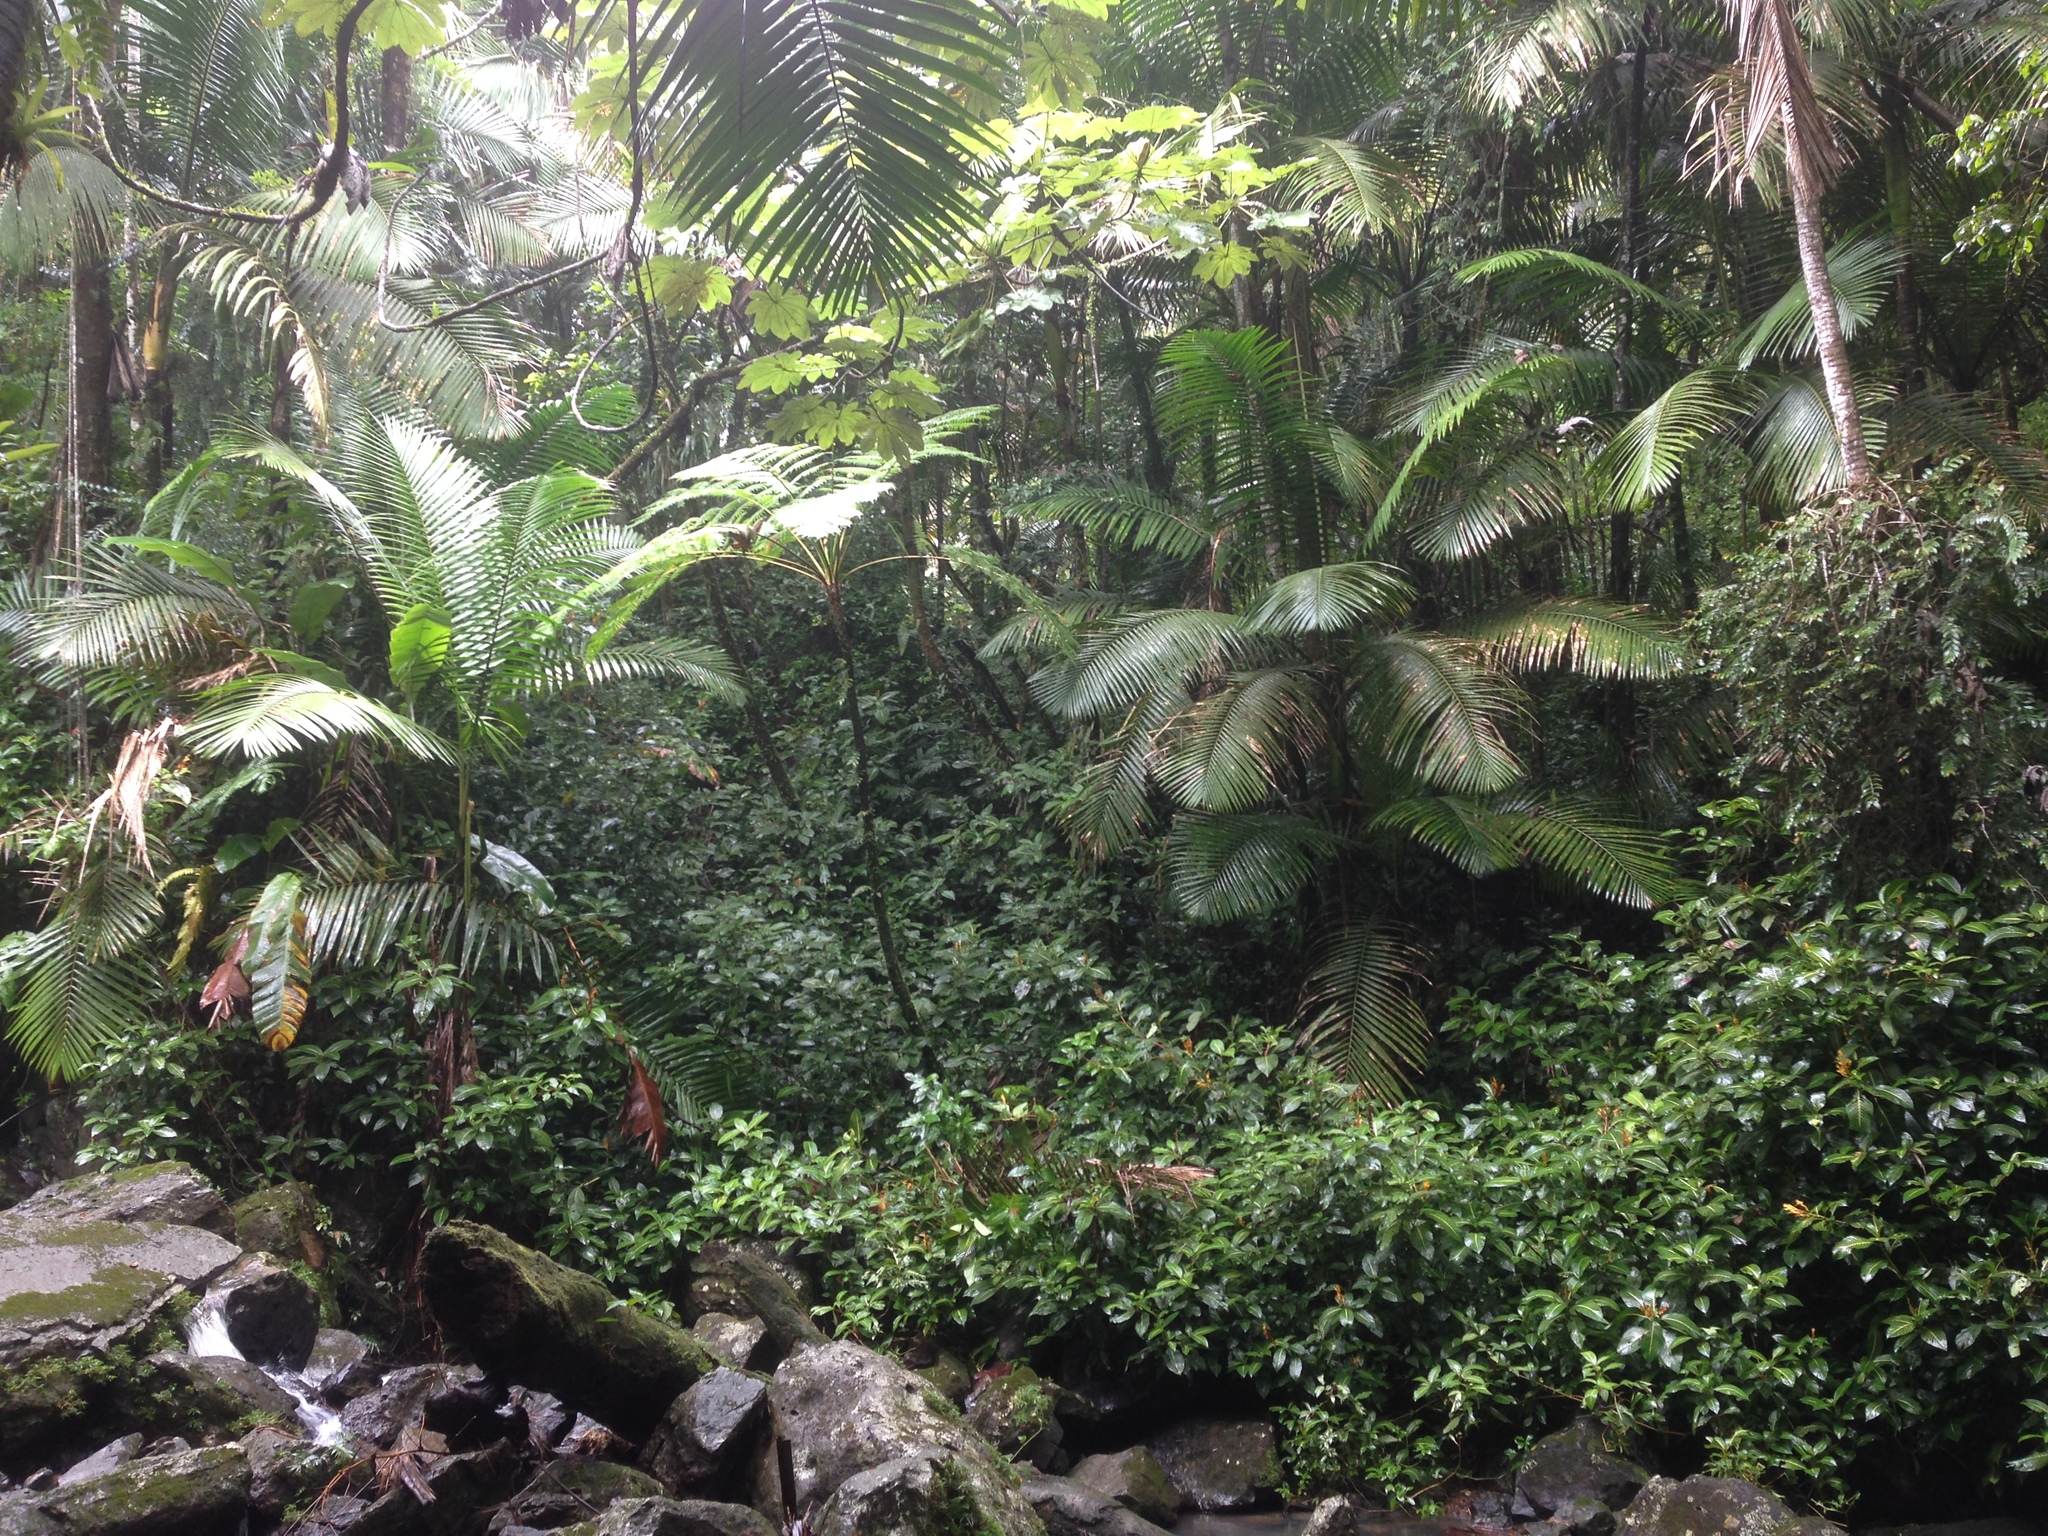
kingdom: Plantae
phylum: Tracheophyta
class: Liliopsida
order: Arecales
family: Arecaceae
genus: Prestoea
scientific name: Prestoea acuminata
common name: Sierran palm
